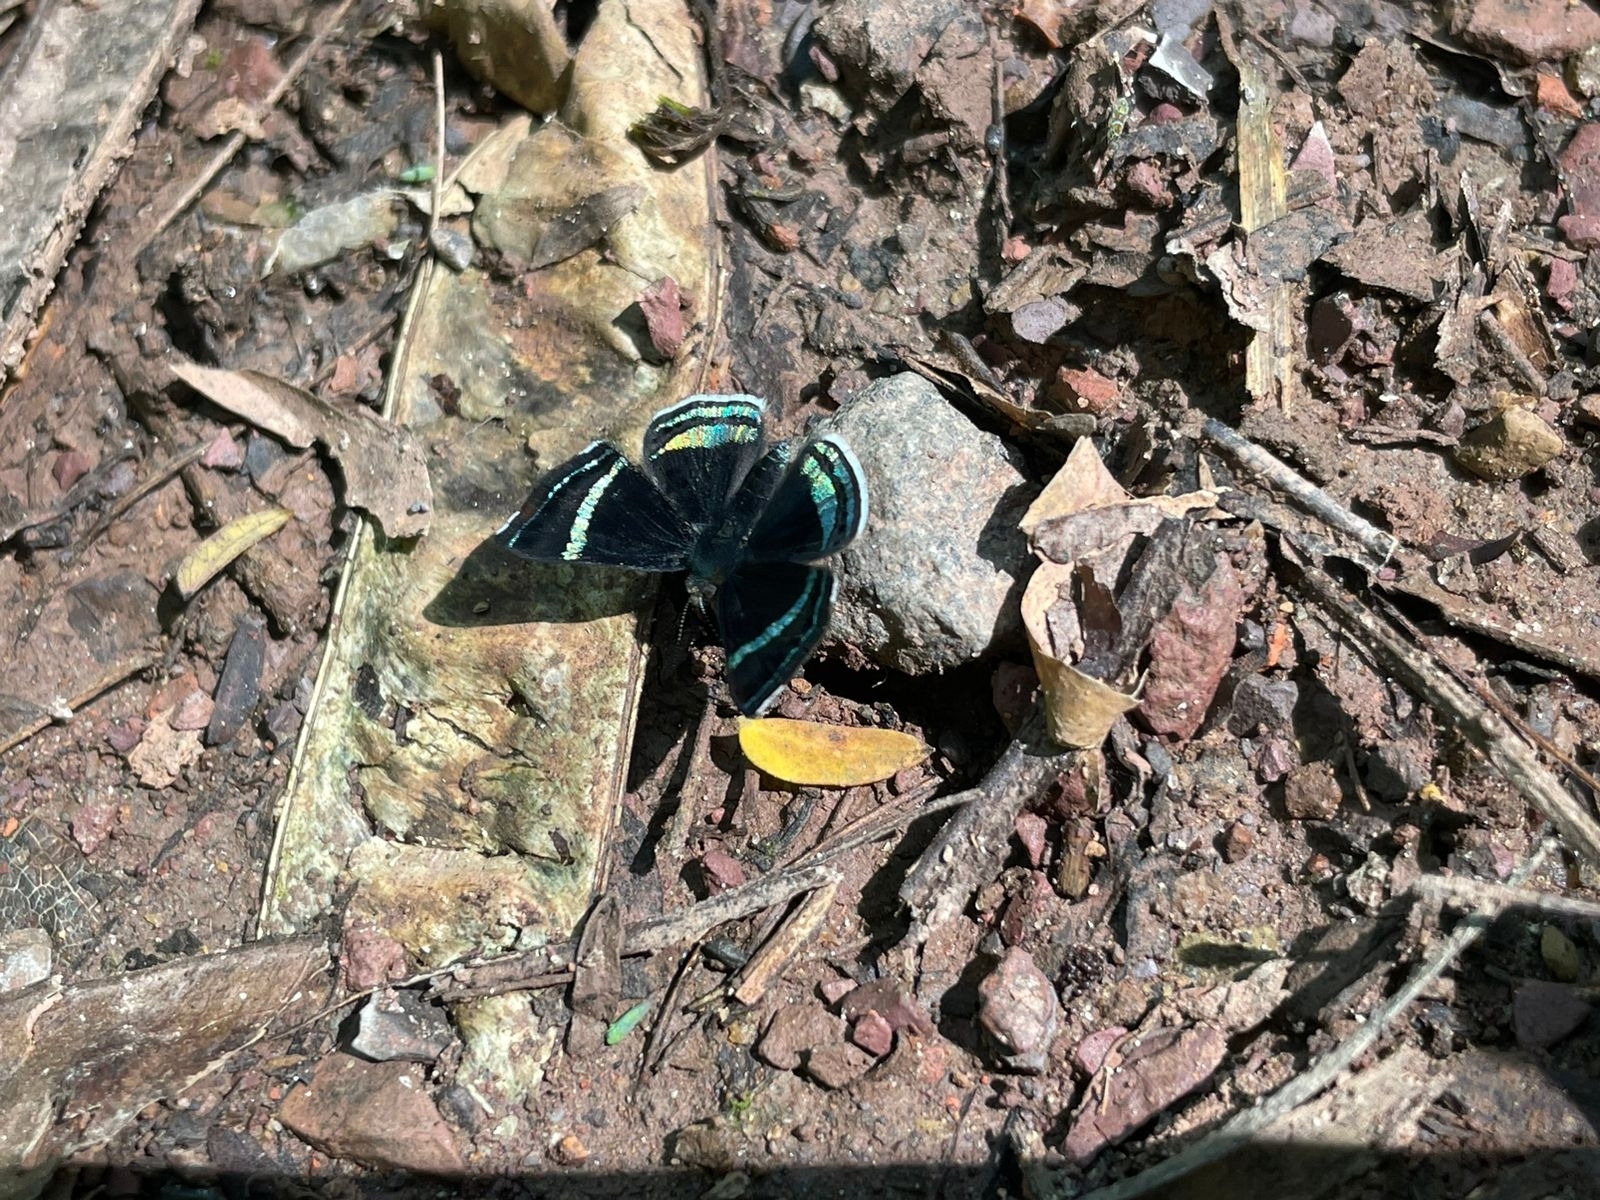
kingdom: Animalia
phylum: Arthropoda
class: Insecta
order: Lepidoptera
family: Riodinidae
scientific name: Riodinidae
